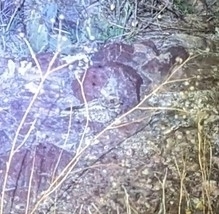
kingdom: Animalia
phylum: Chordata
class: Aves
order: Caprimulgiformes
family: Caprimulgidae
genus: Phalaenoptilus
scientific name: Phalaenoptilus nuttallii
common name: Common poorwill
